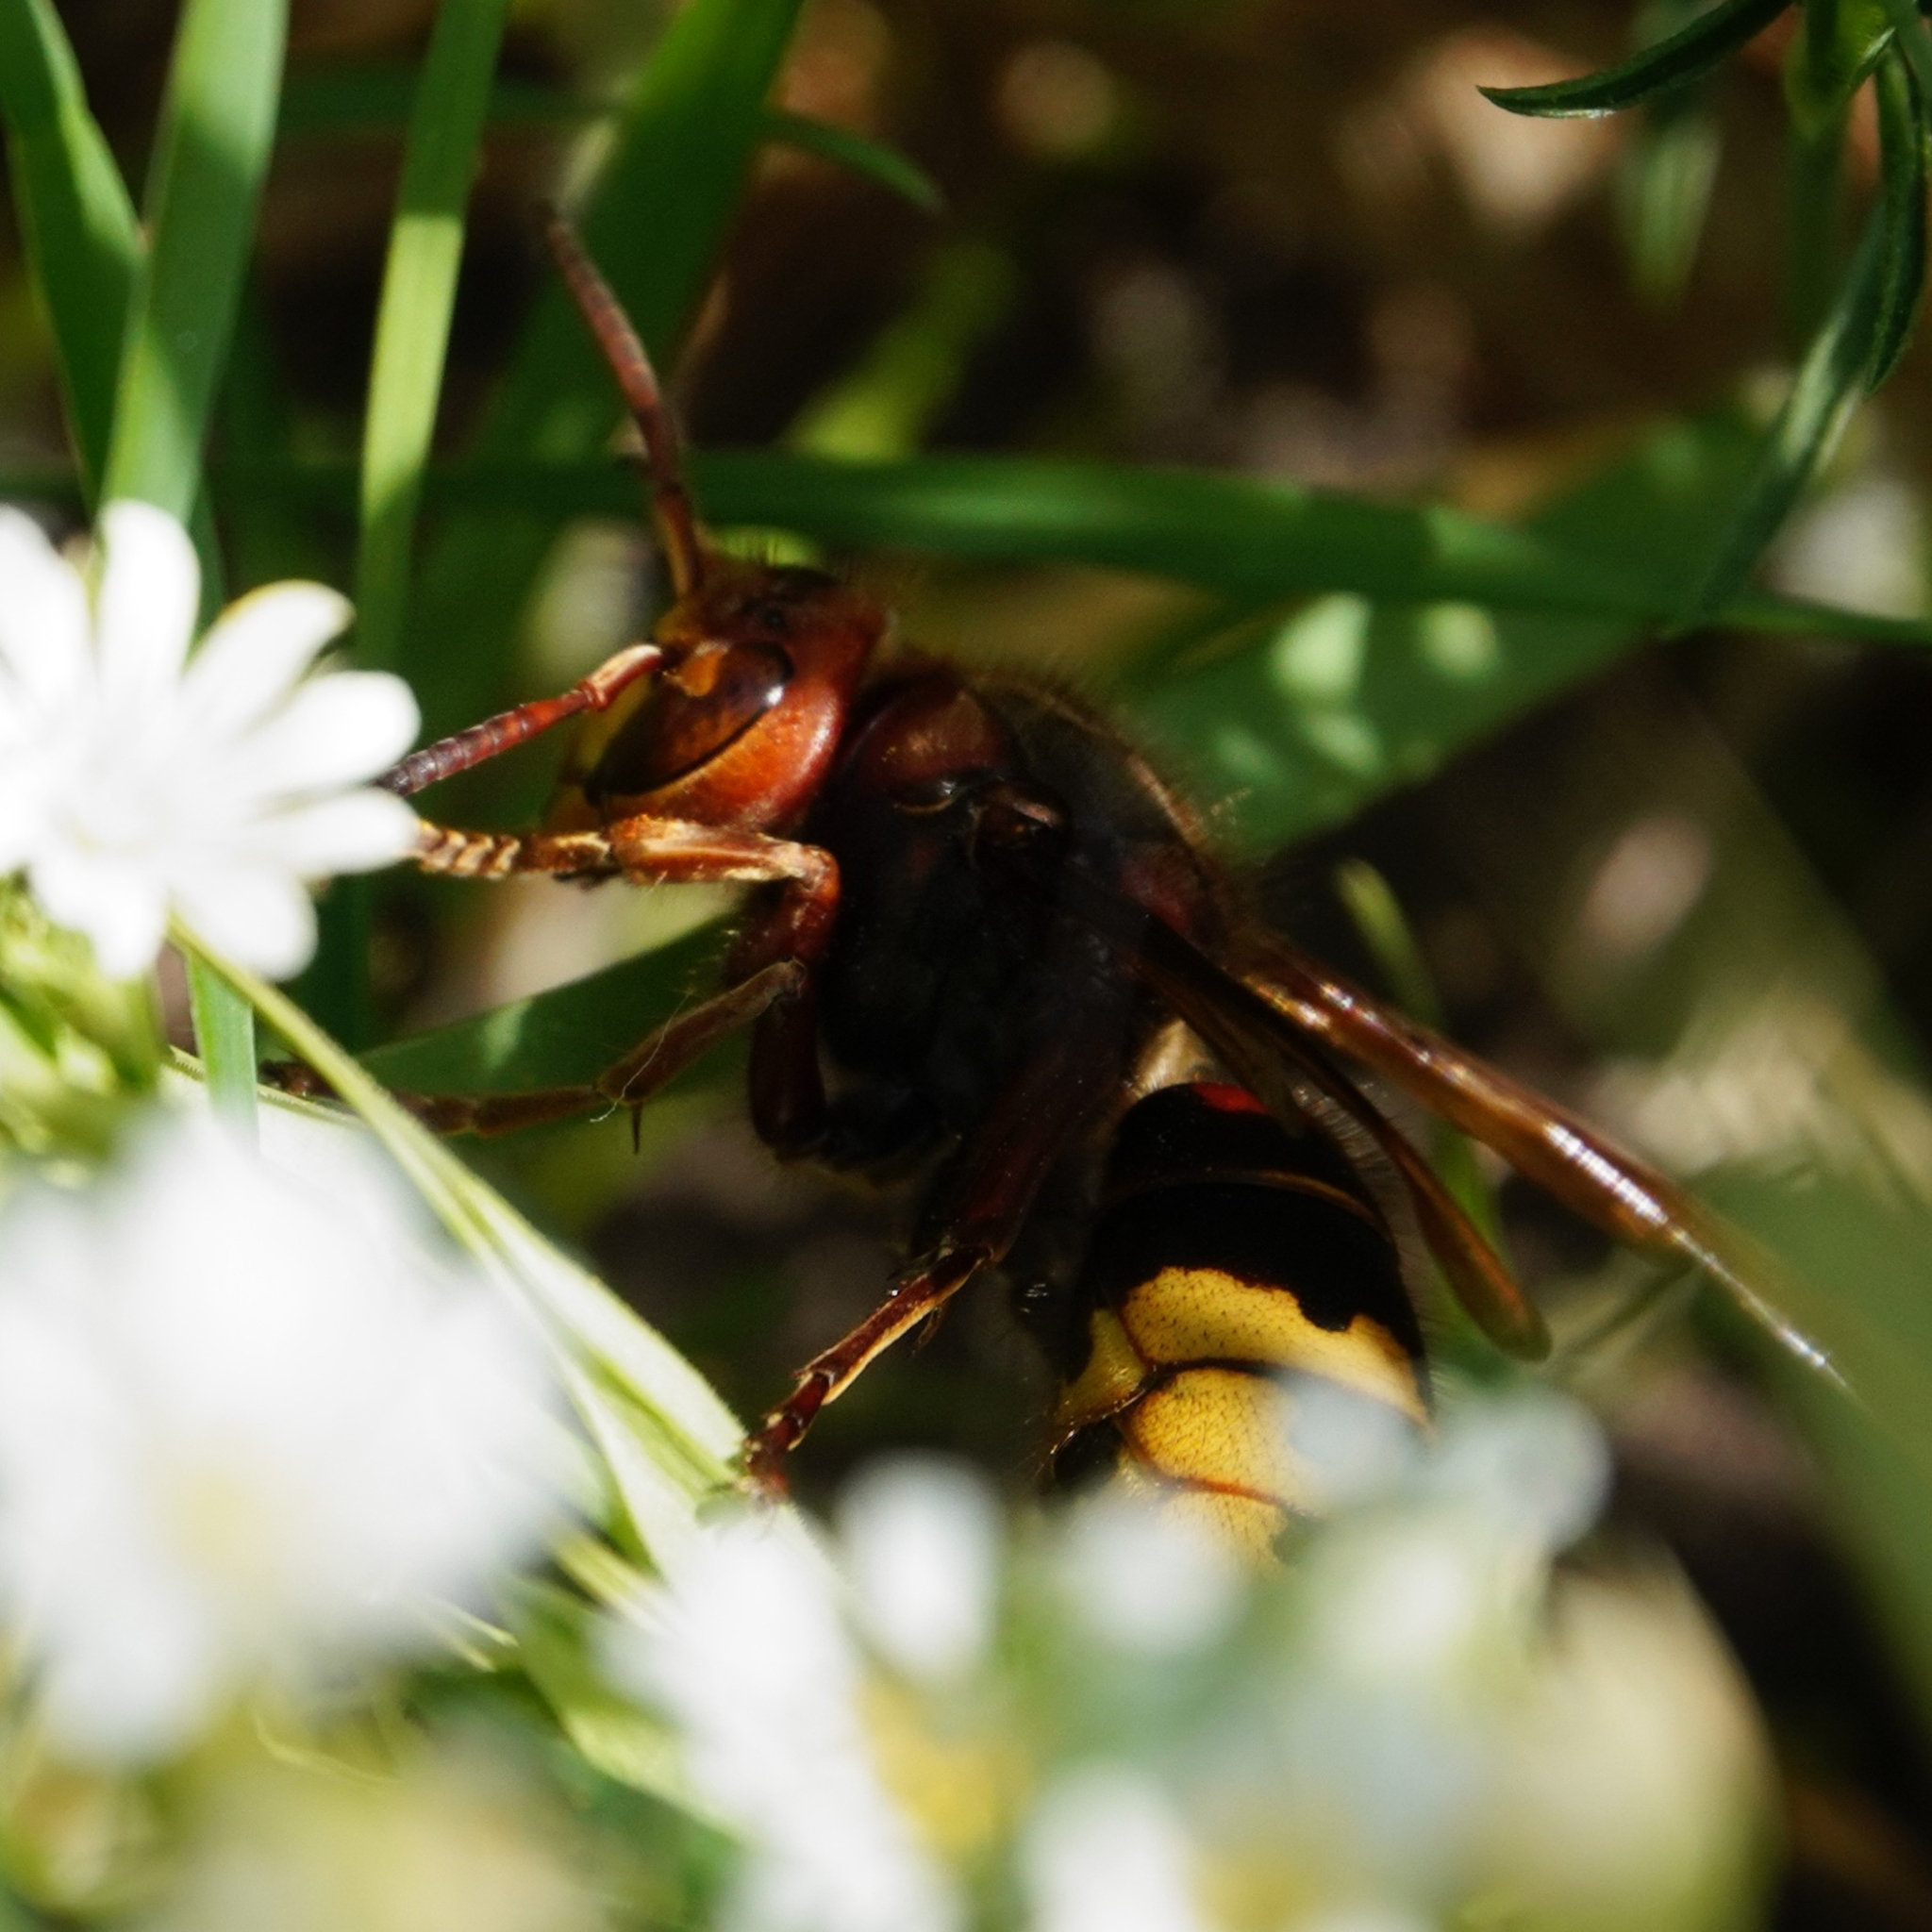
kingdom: Animalia
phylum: Arthropoda
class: Insecta
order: Hymenoptera
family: Vespidae
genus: Vespa
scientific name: Vespa crabro
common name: Hornet
